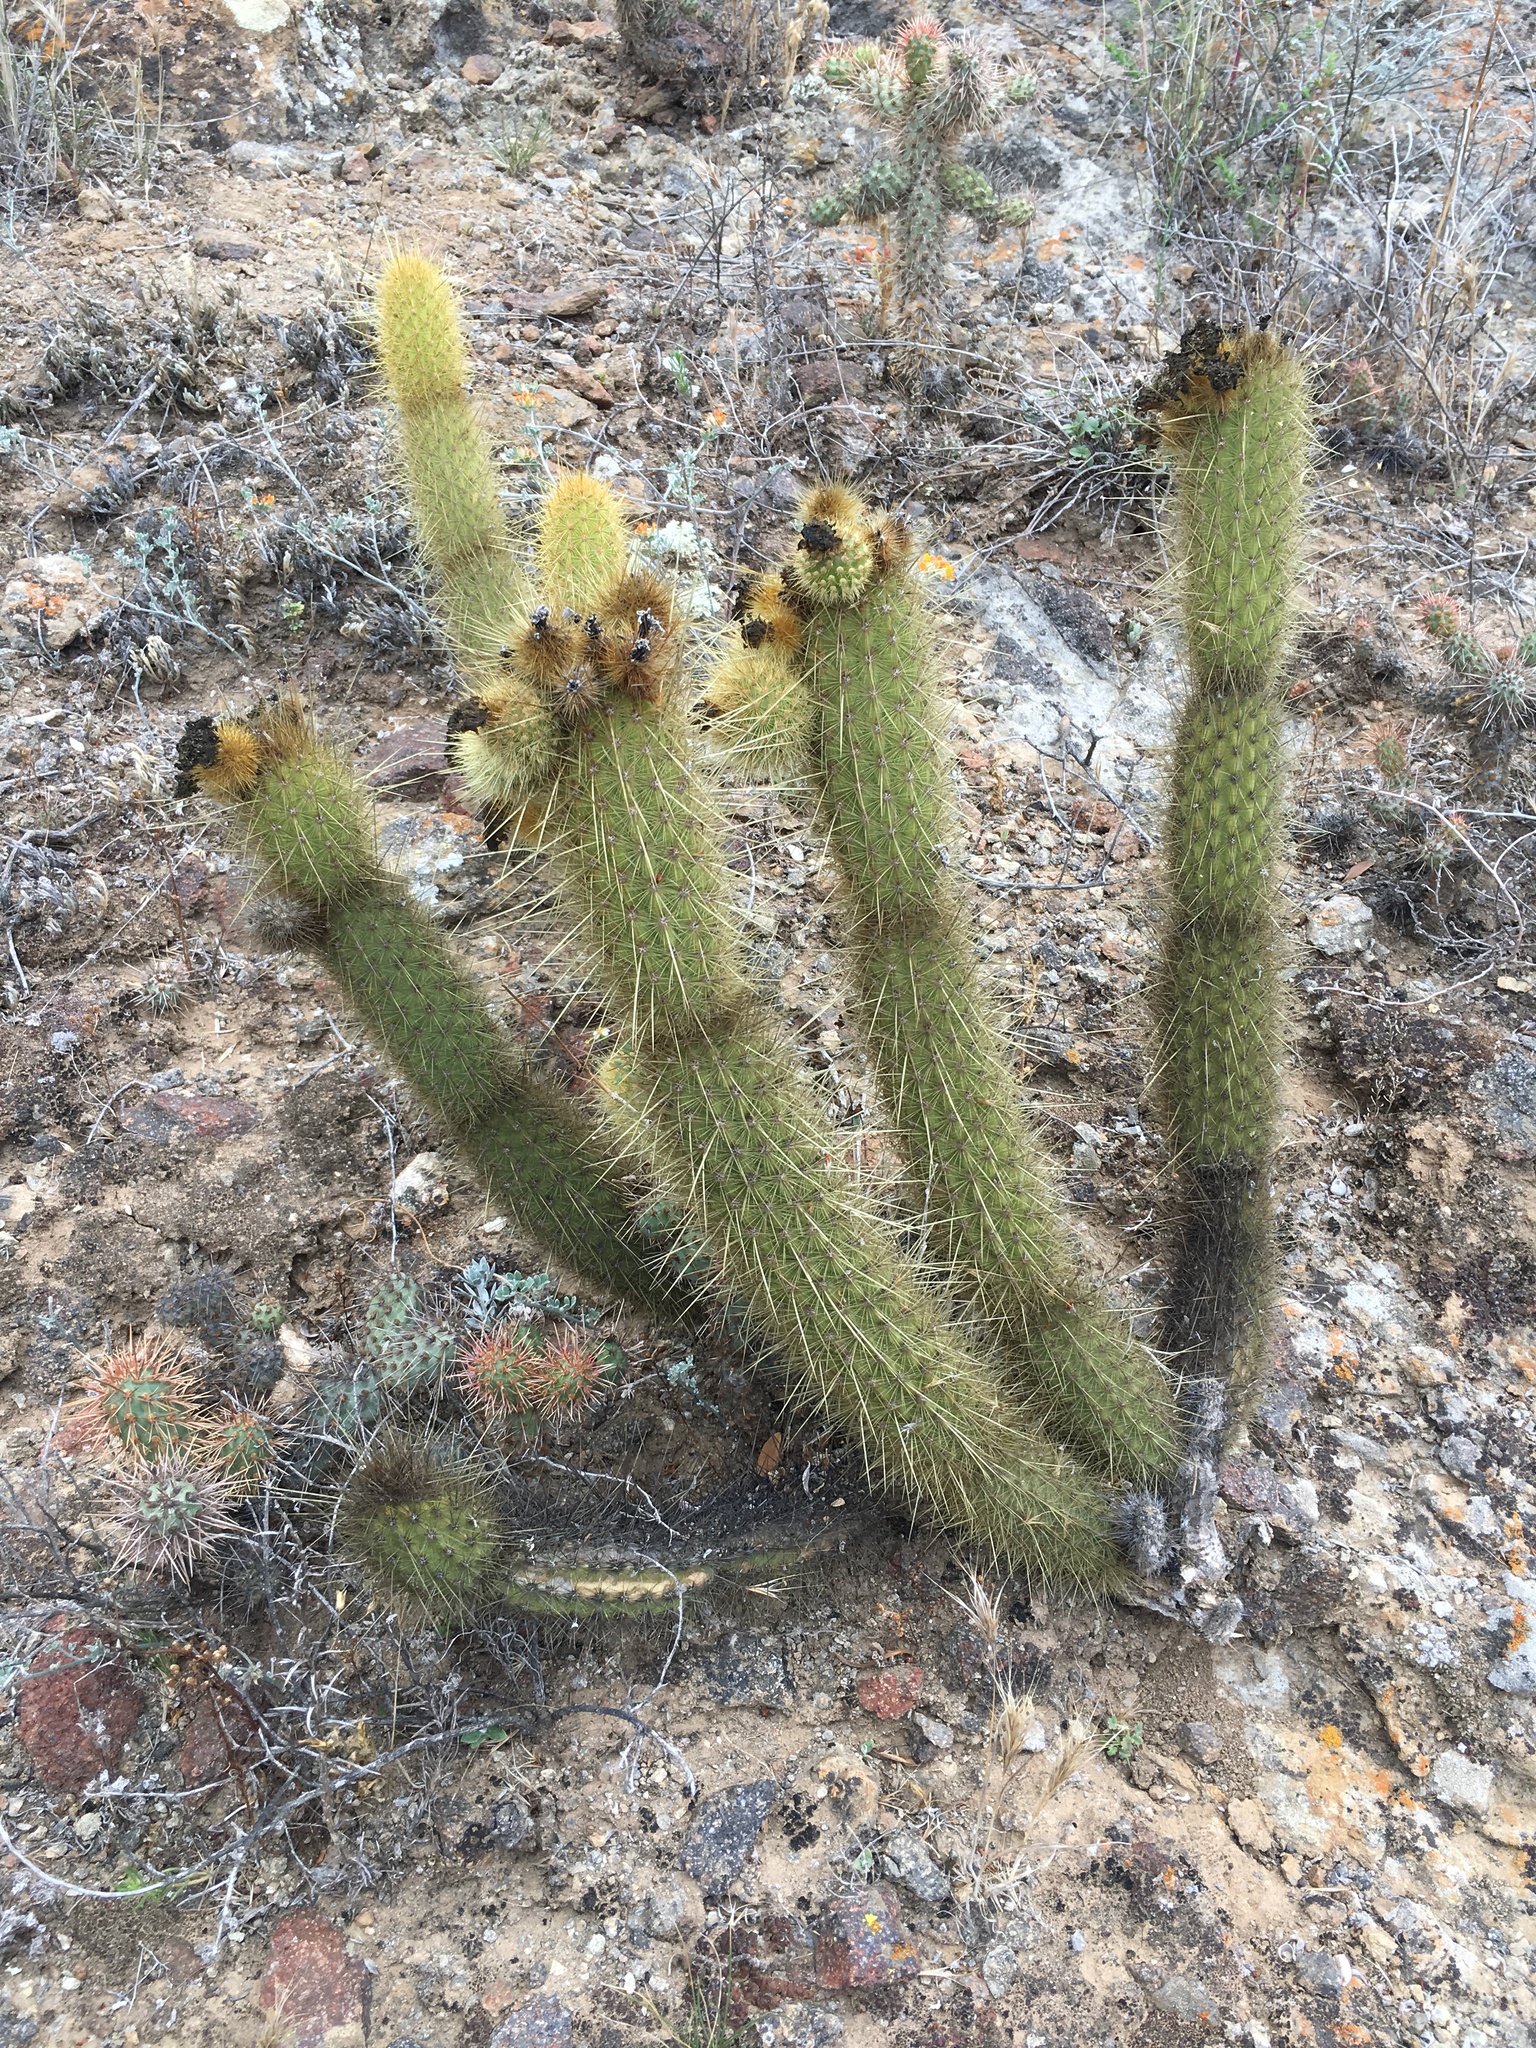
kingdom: Plantae
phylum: Tracheophyta
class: Magnoliopsida
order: Caryophyllales
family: Cactaceae
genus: Bergerocactus
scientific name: Bergerocactus emoryi
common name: Golden snakecactus
